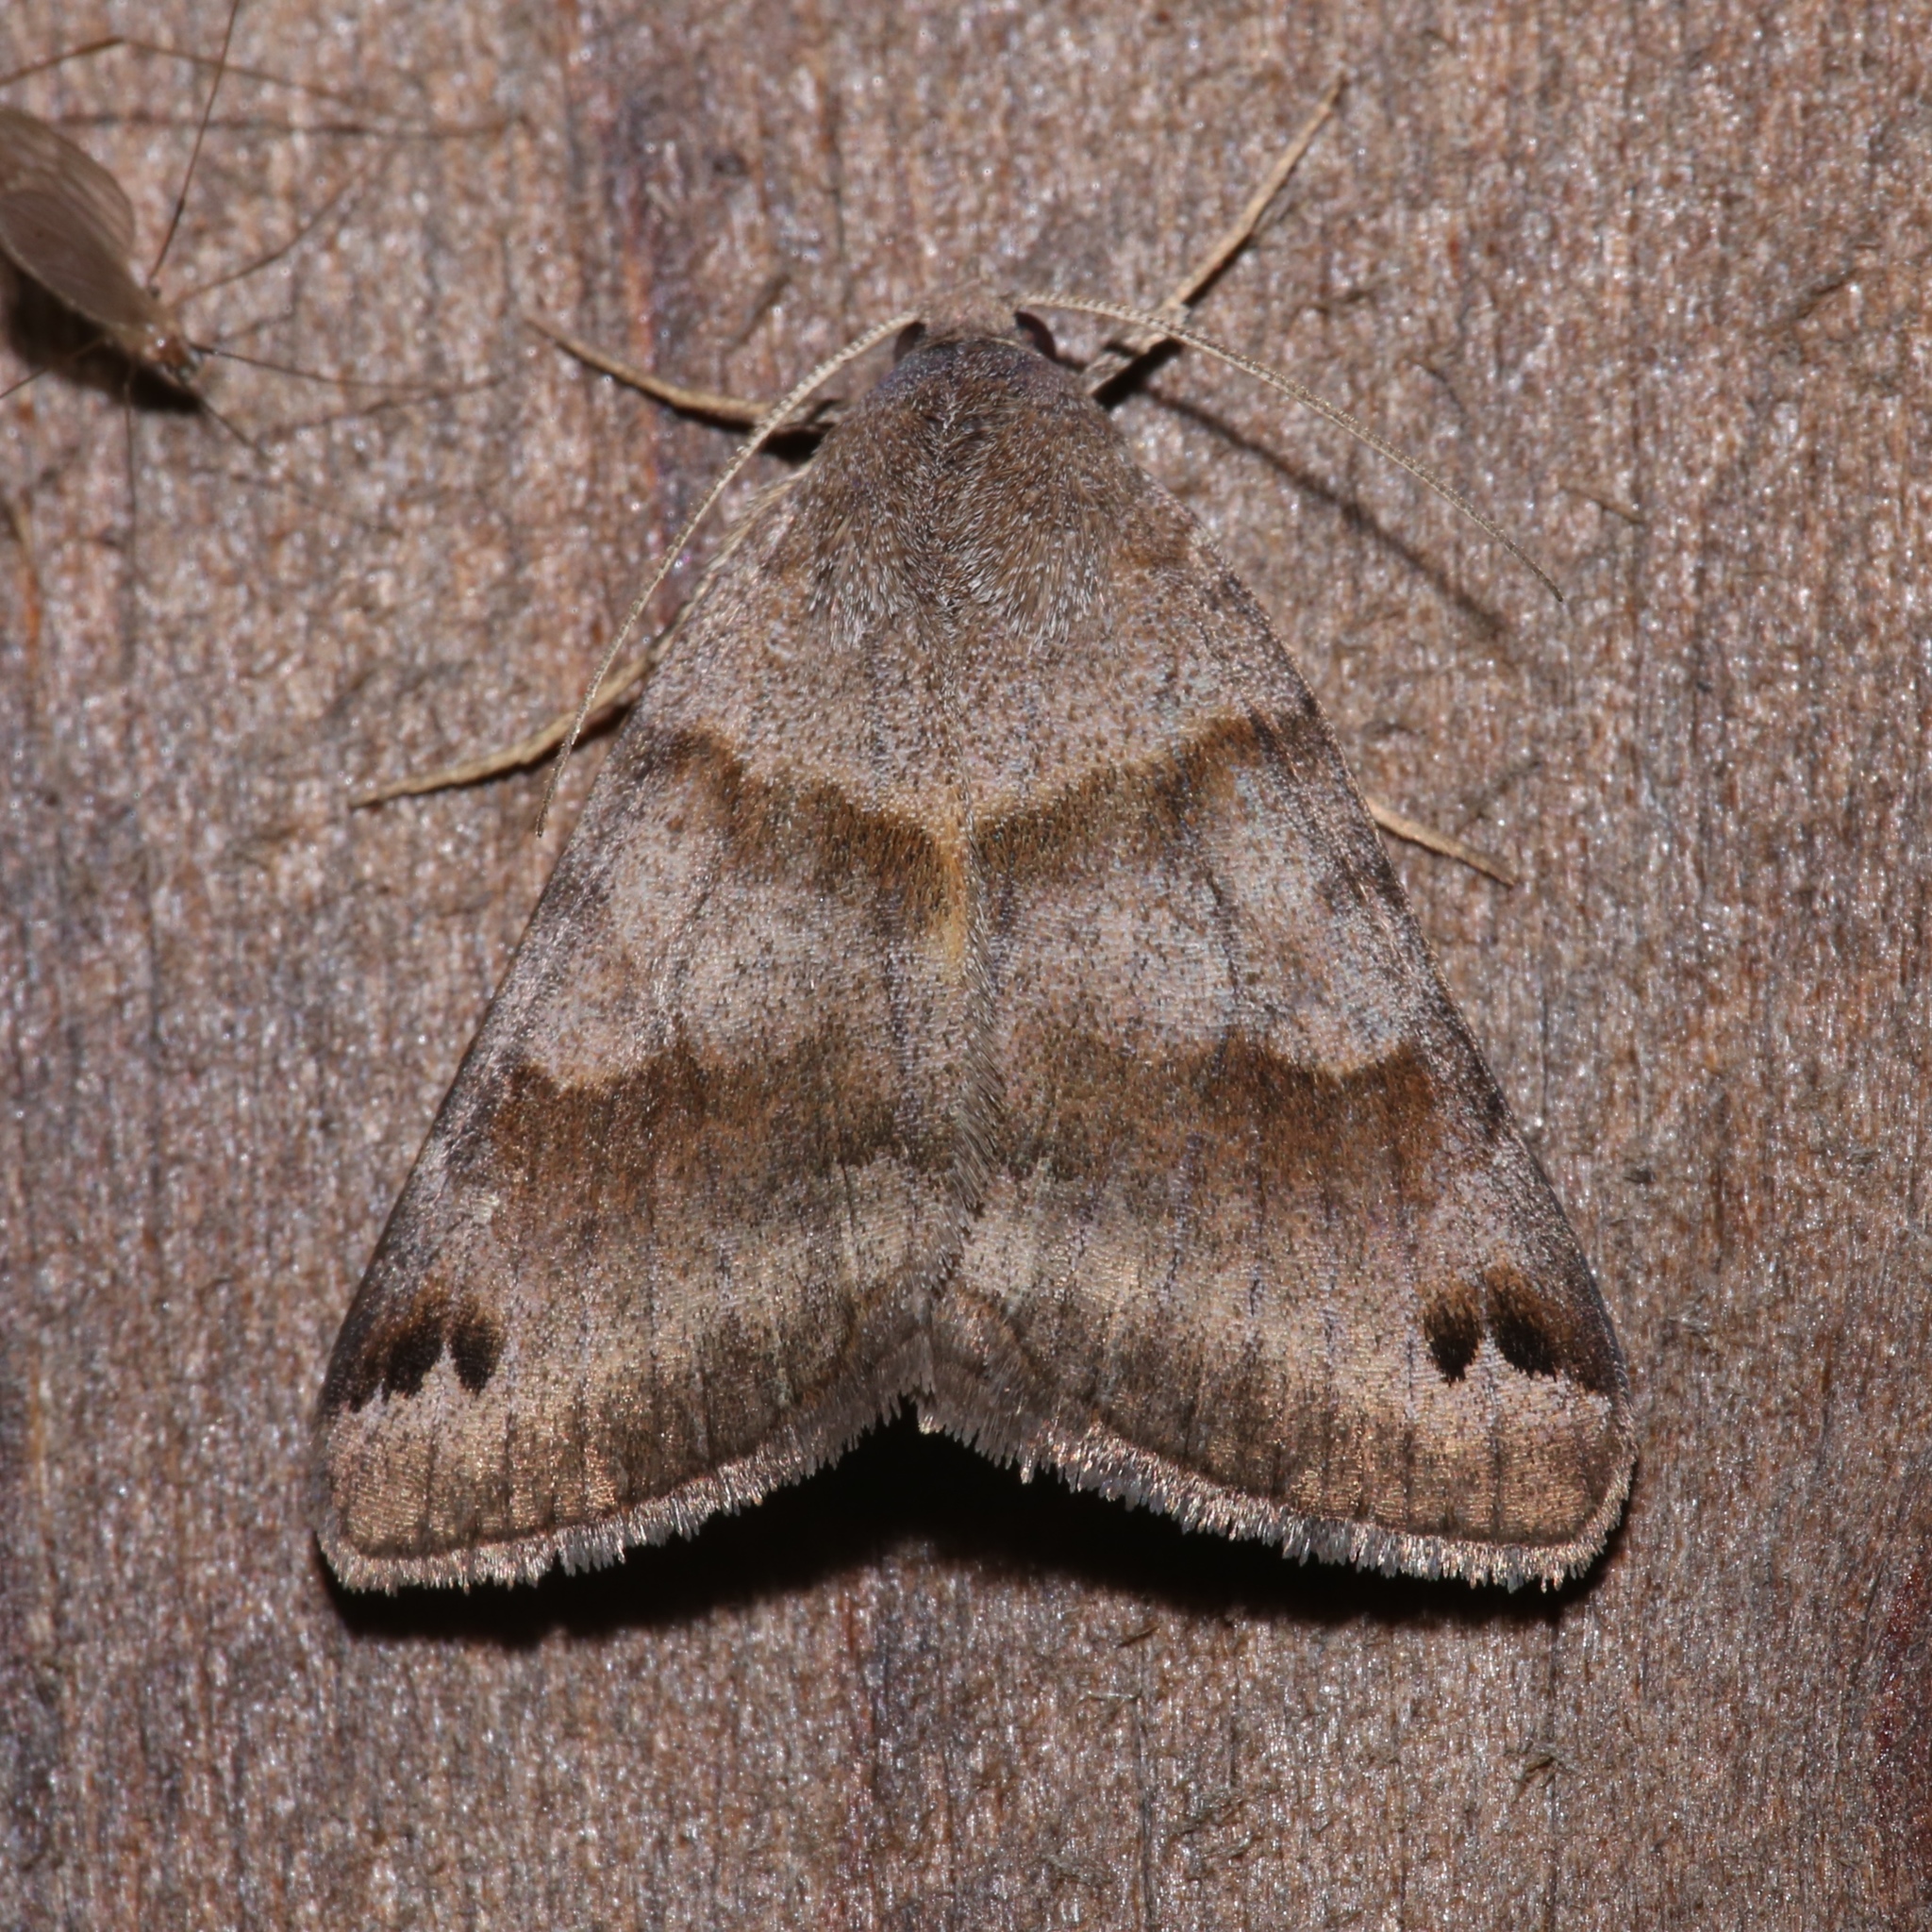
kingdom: Animalia
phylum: Arthropoda
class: Insecta
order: Lepidoptera
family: Erebidae
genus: Caenurgina
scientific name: Caenurgina crassiuscula
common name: Double-barred
